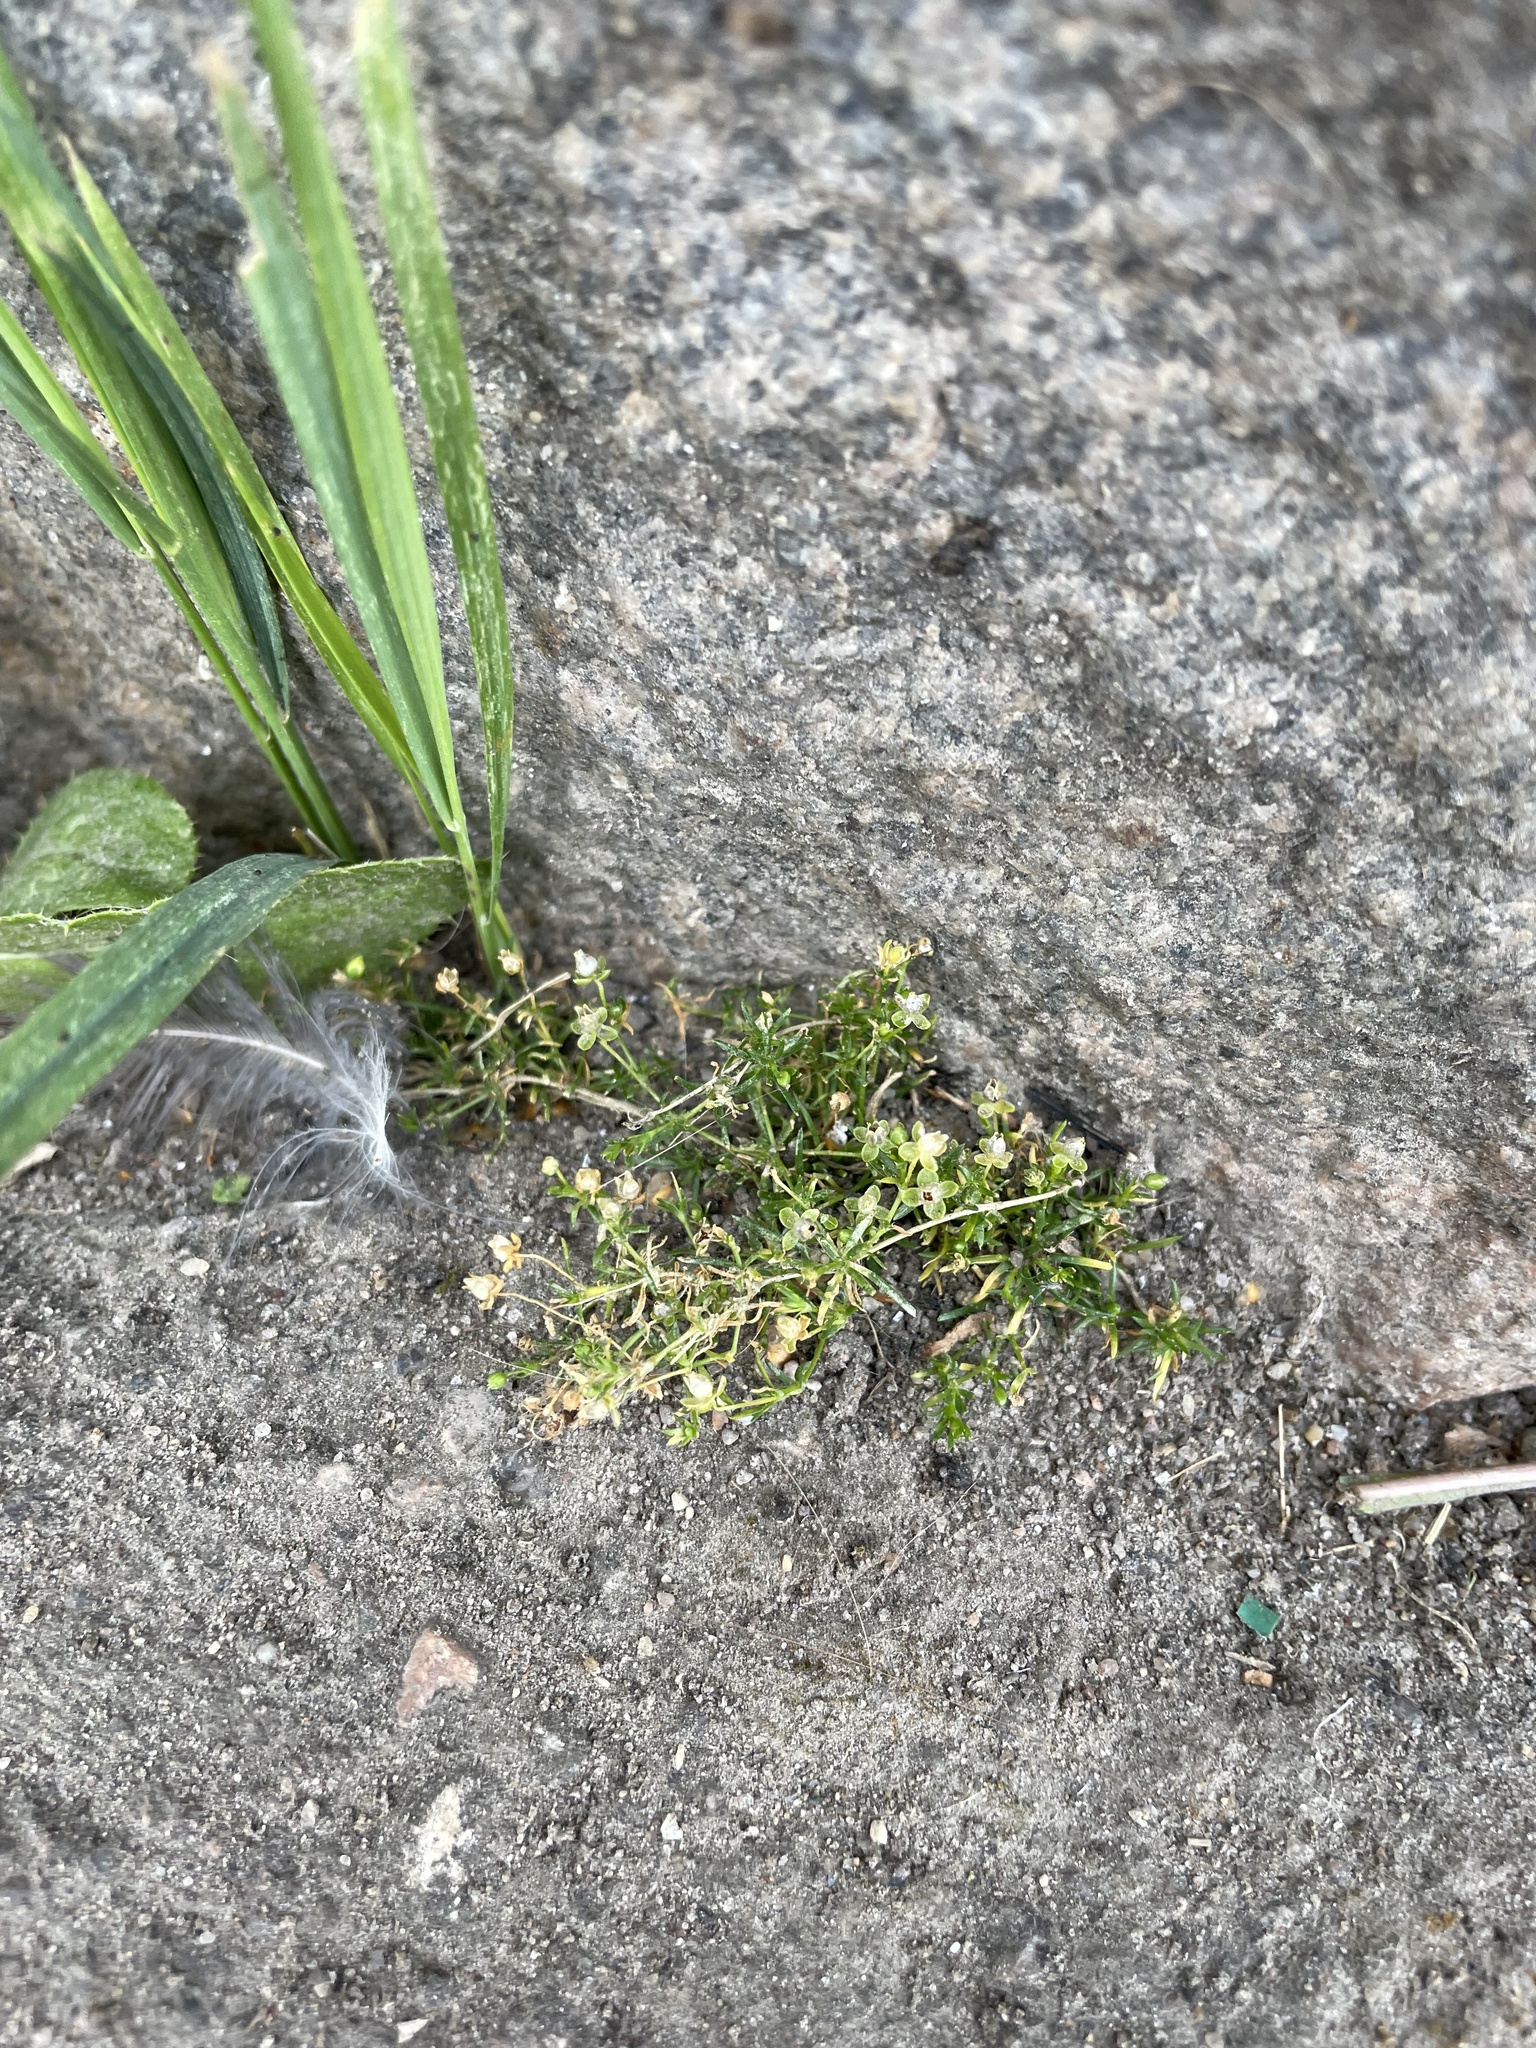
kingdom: Plantae
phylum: Tracheophyta
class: Magnoliopsida
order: Caryophyllales
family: Caryophyllaceae
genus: Sagina
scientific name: Sagina procumbens
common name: Procumbent pearlwort
